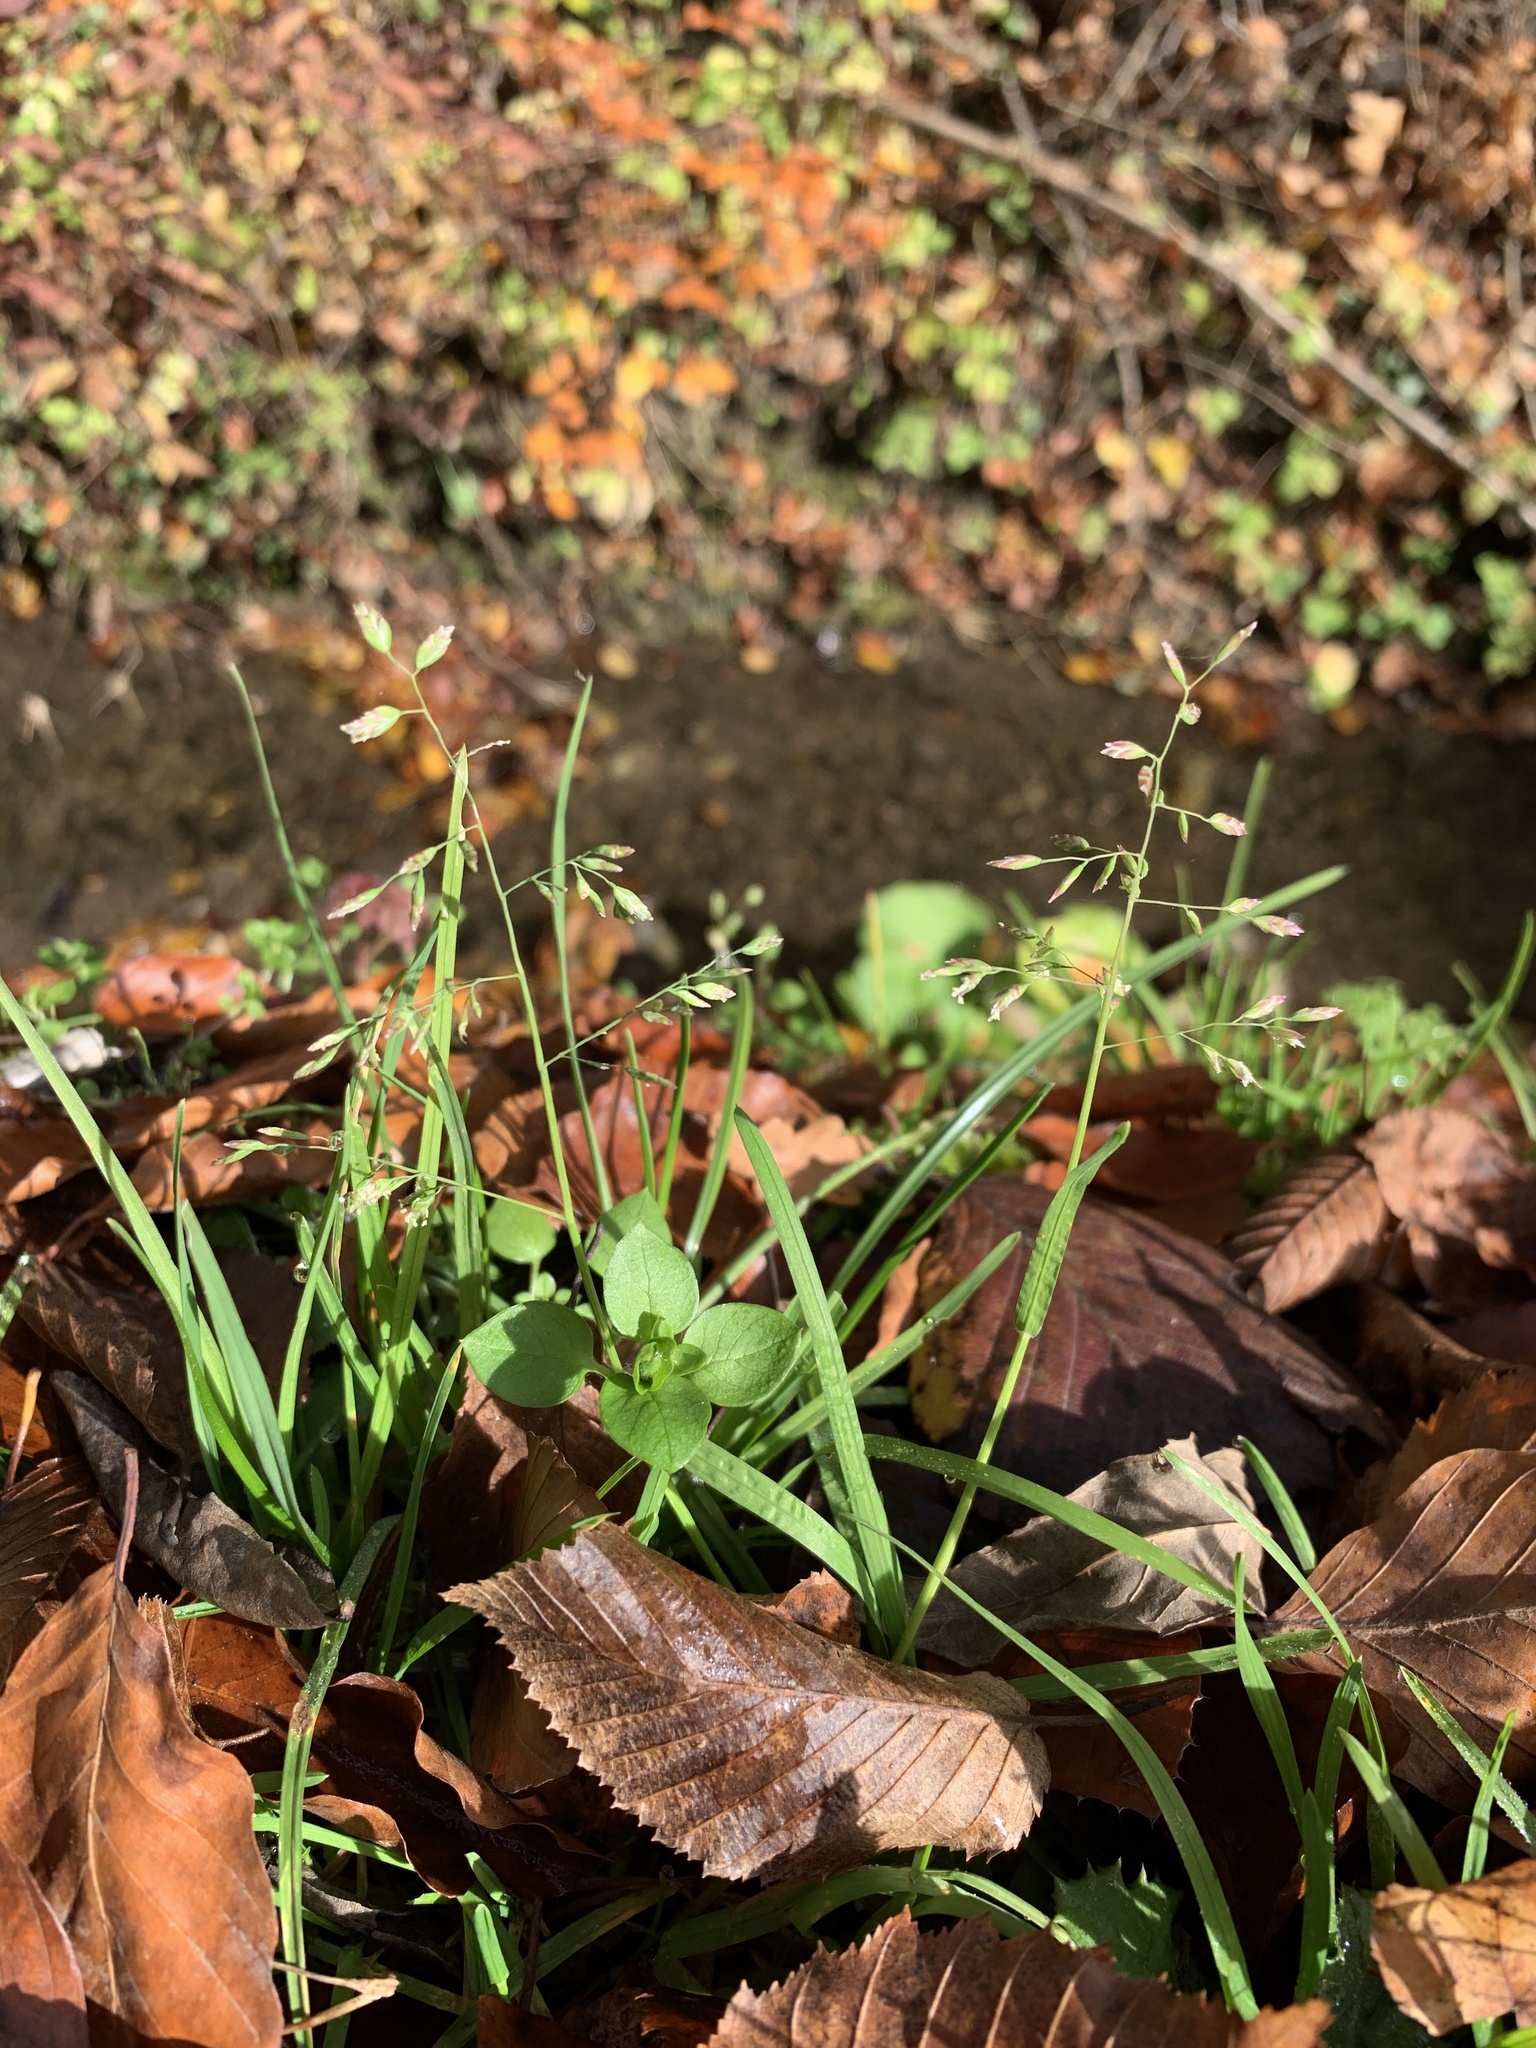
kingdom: Plantae
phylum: Tracheophyta
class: Liliopsida
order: Poales
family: Poaceae
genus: Poa
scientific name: Poa annua
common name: Annual bluegrass
